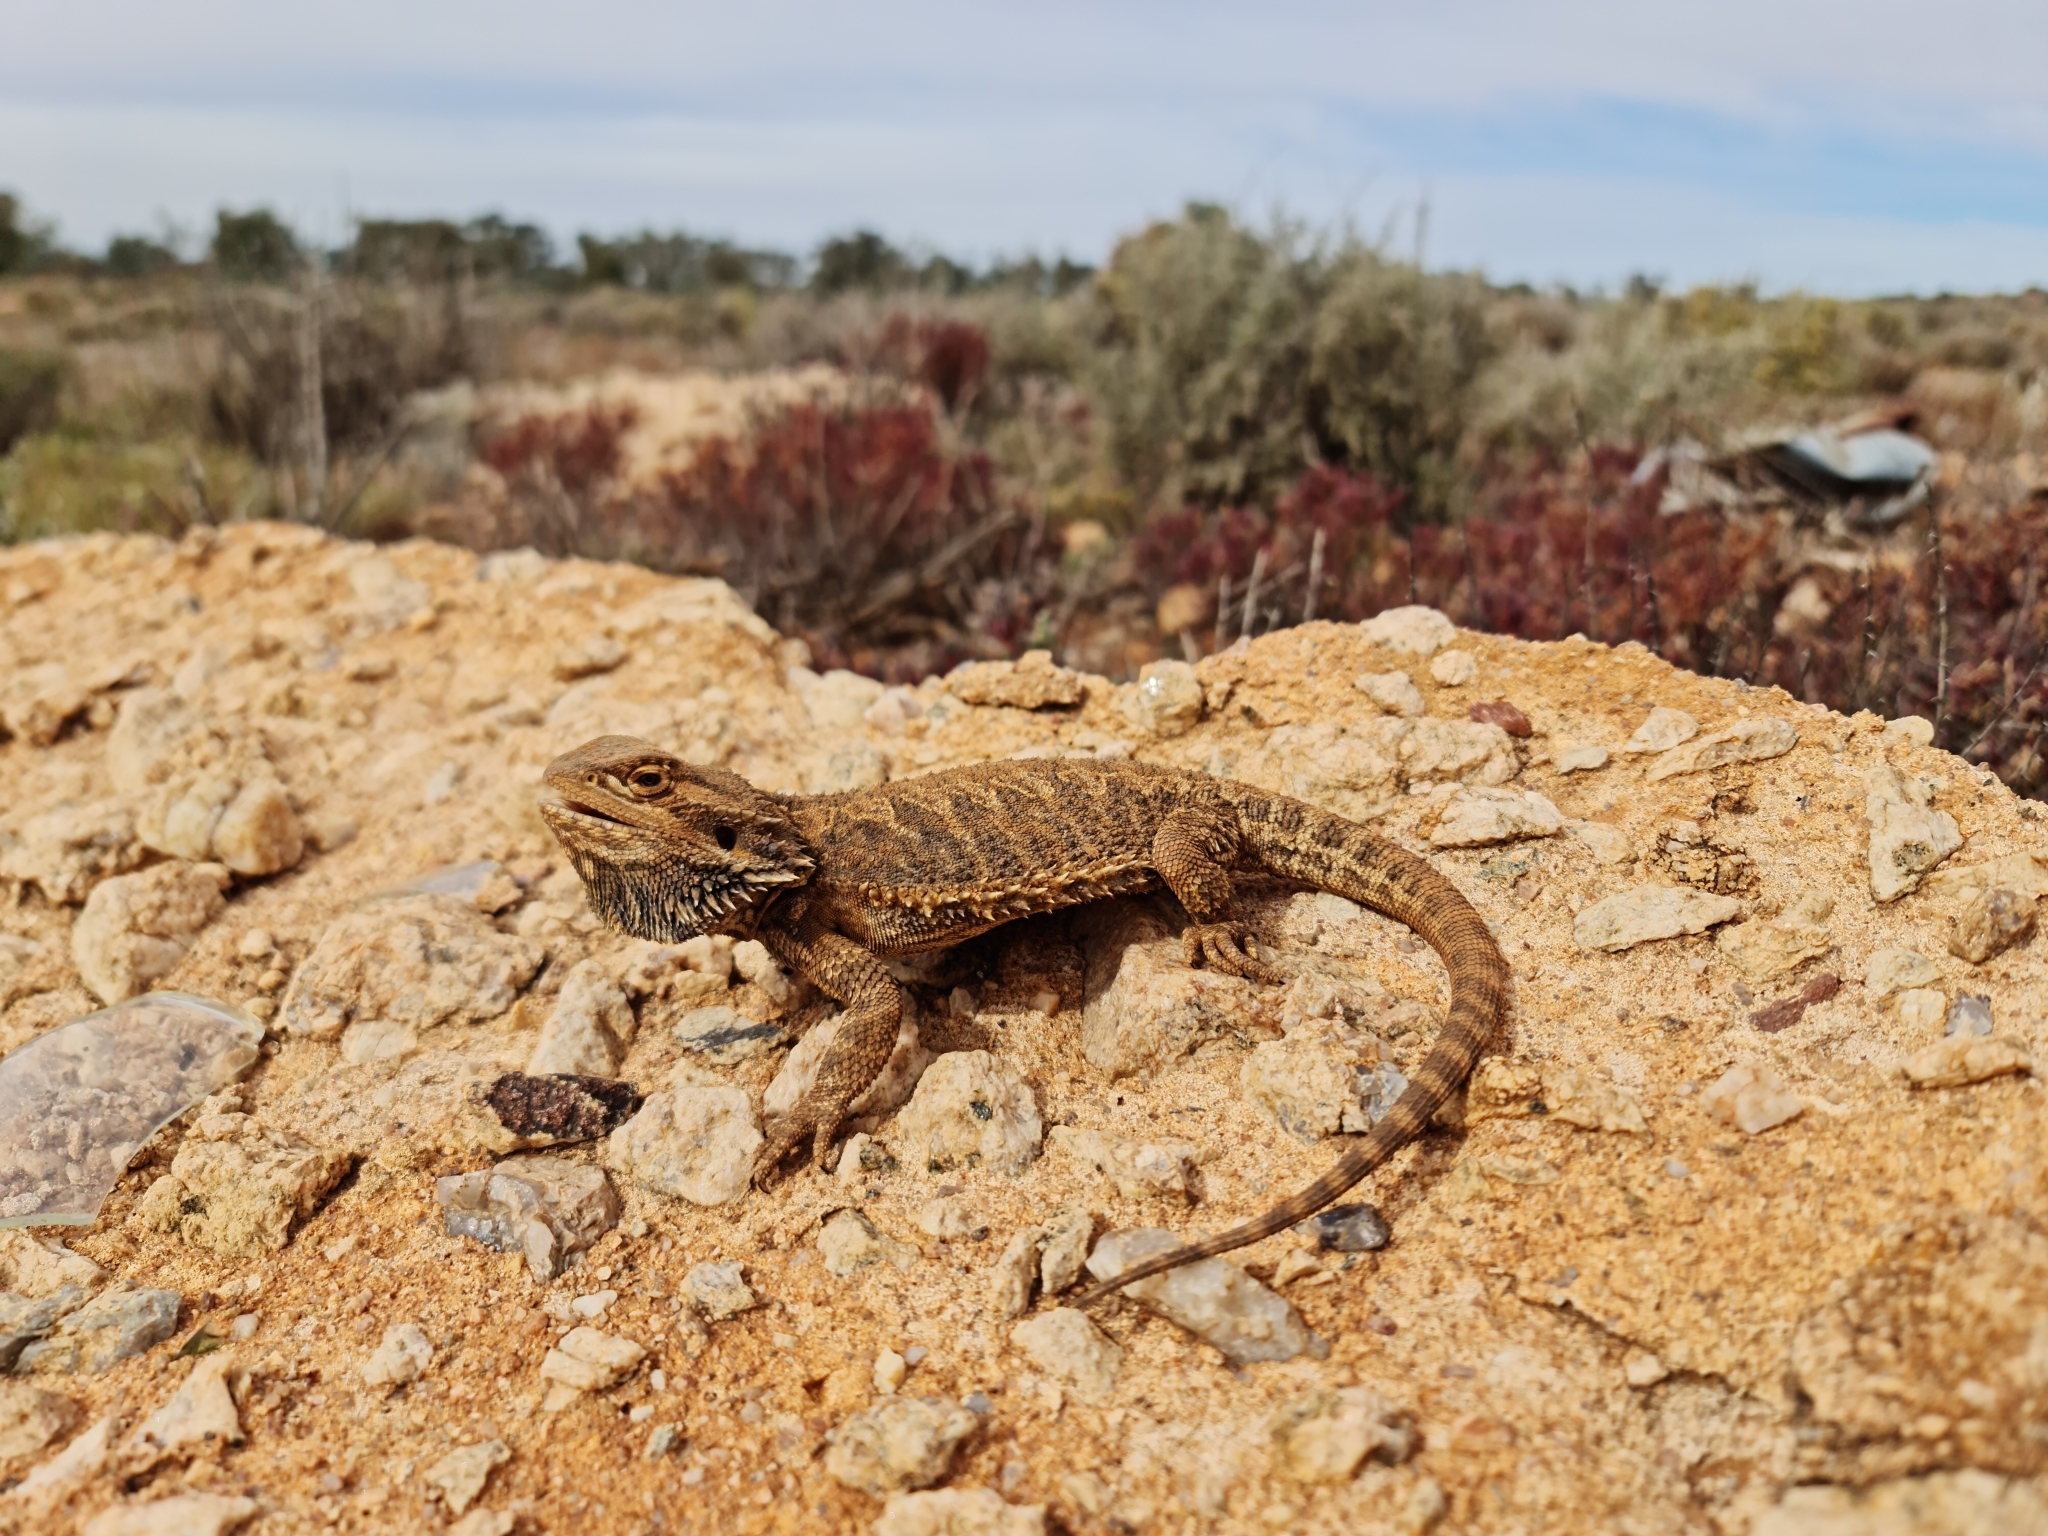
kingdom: Animalia
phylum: Chordata
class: Squamata
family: Agamidae
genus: Pogona
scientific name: Pogona vitticeps
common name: Central bearded dragon
